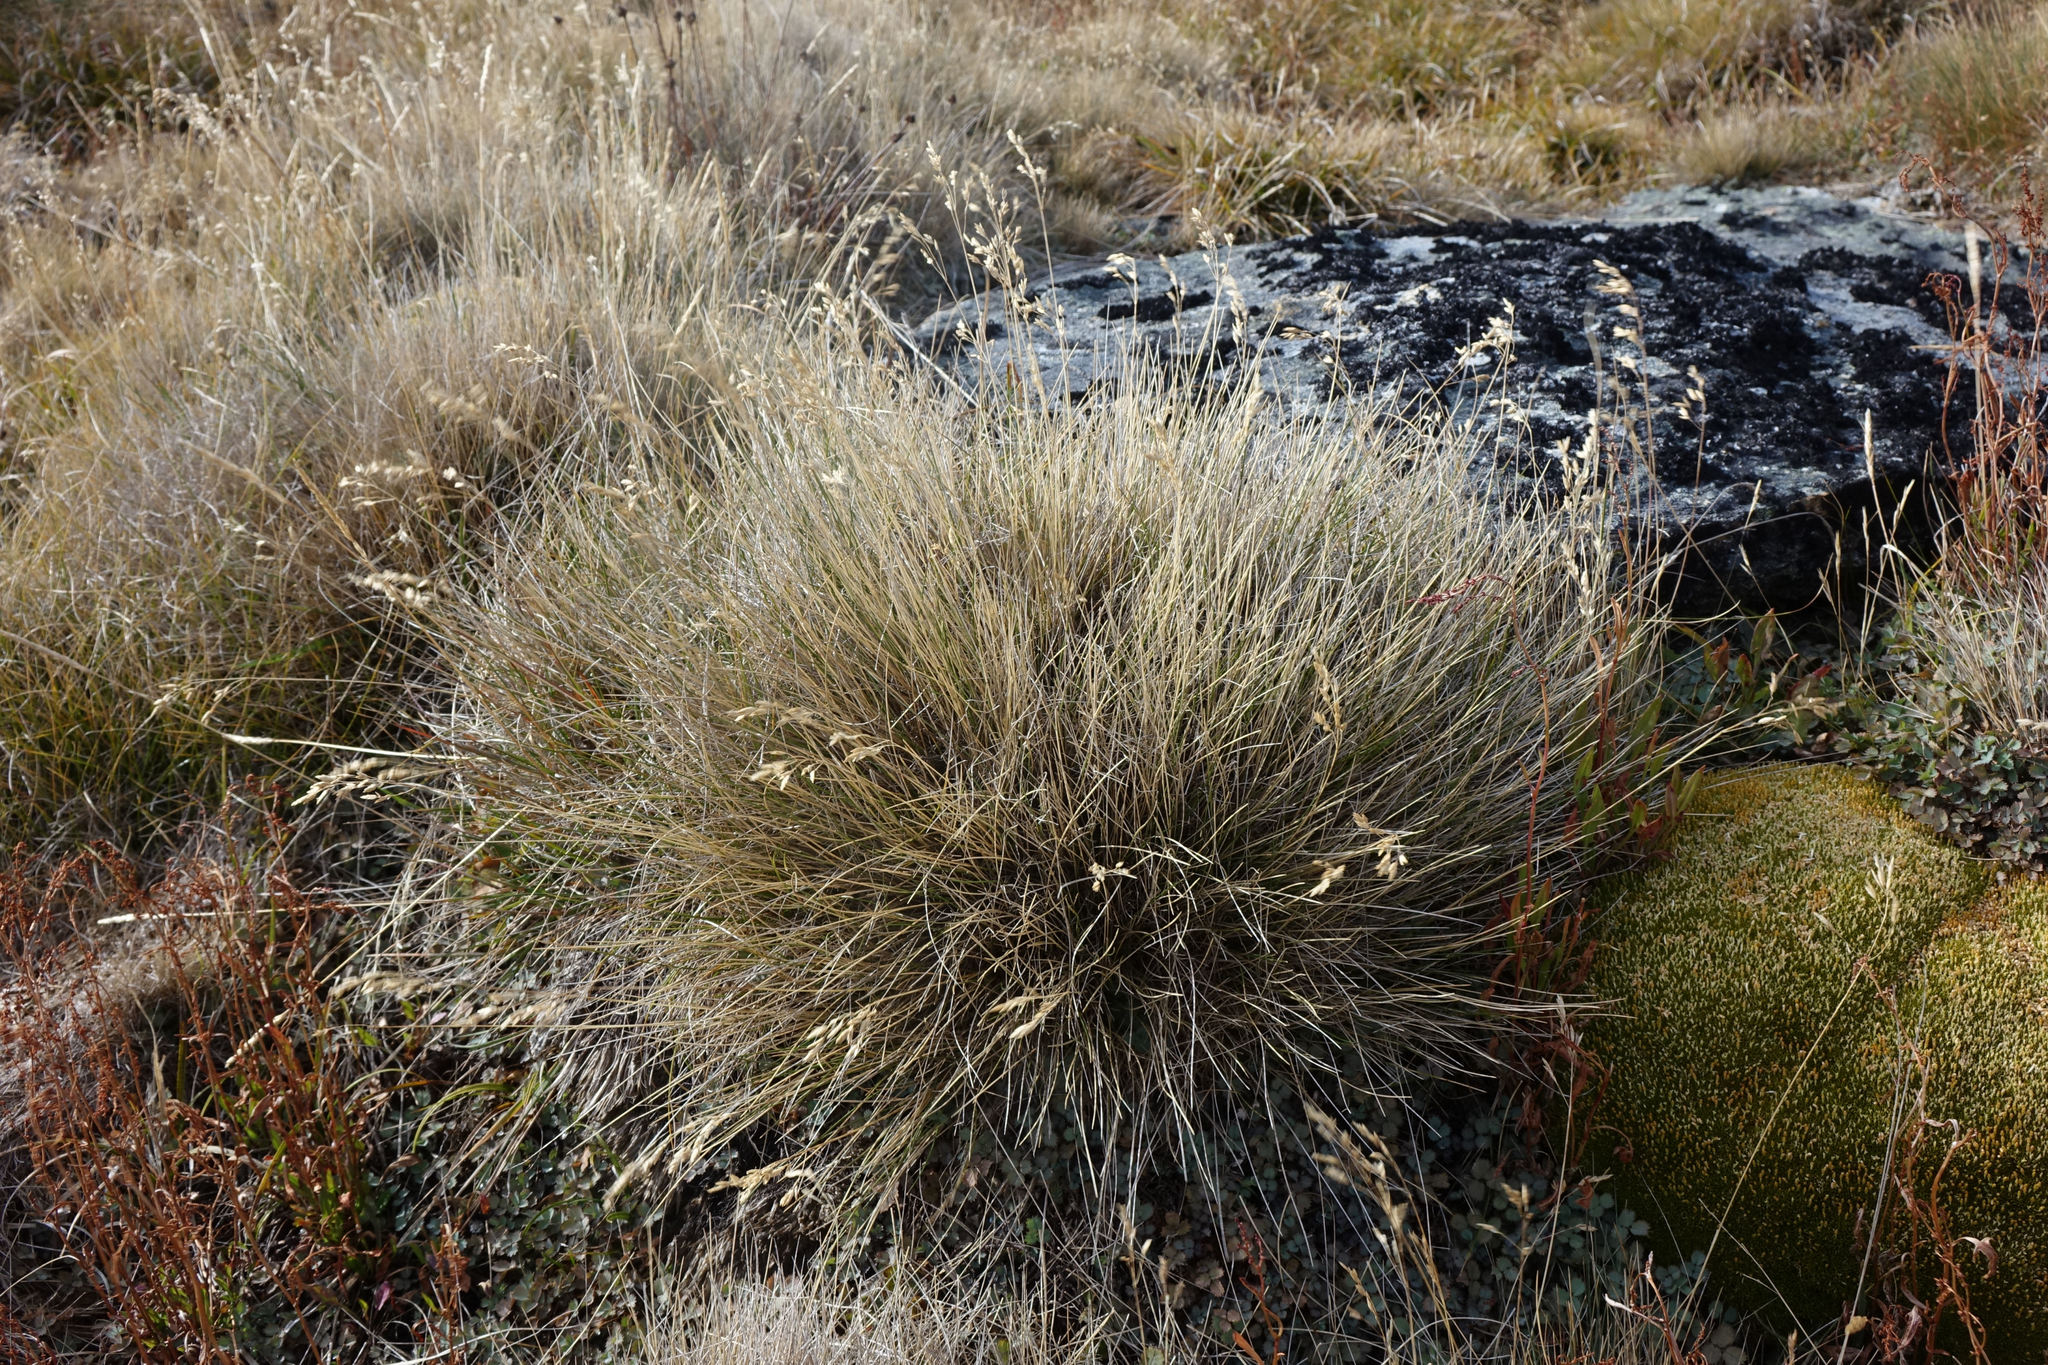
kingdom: Plantae
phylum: Tracheophyta
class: Liliopsida
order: Poales
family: Poaceae
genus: Poa
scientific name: Poa colensoi
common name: Blue tussock
